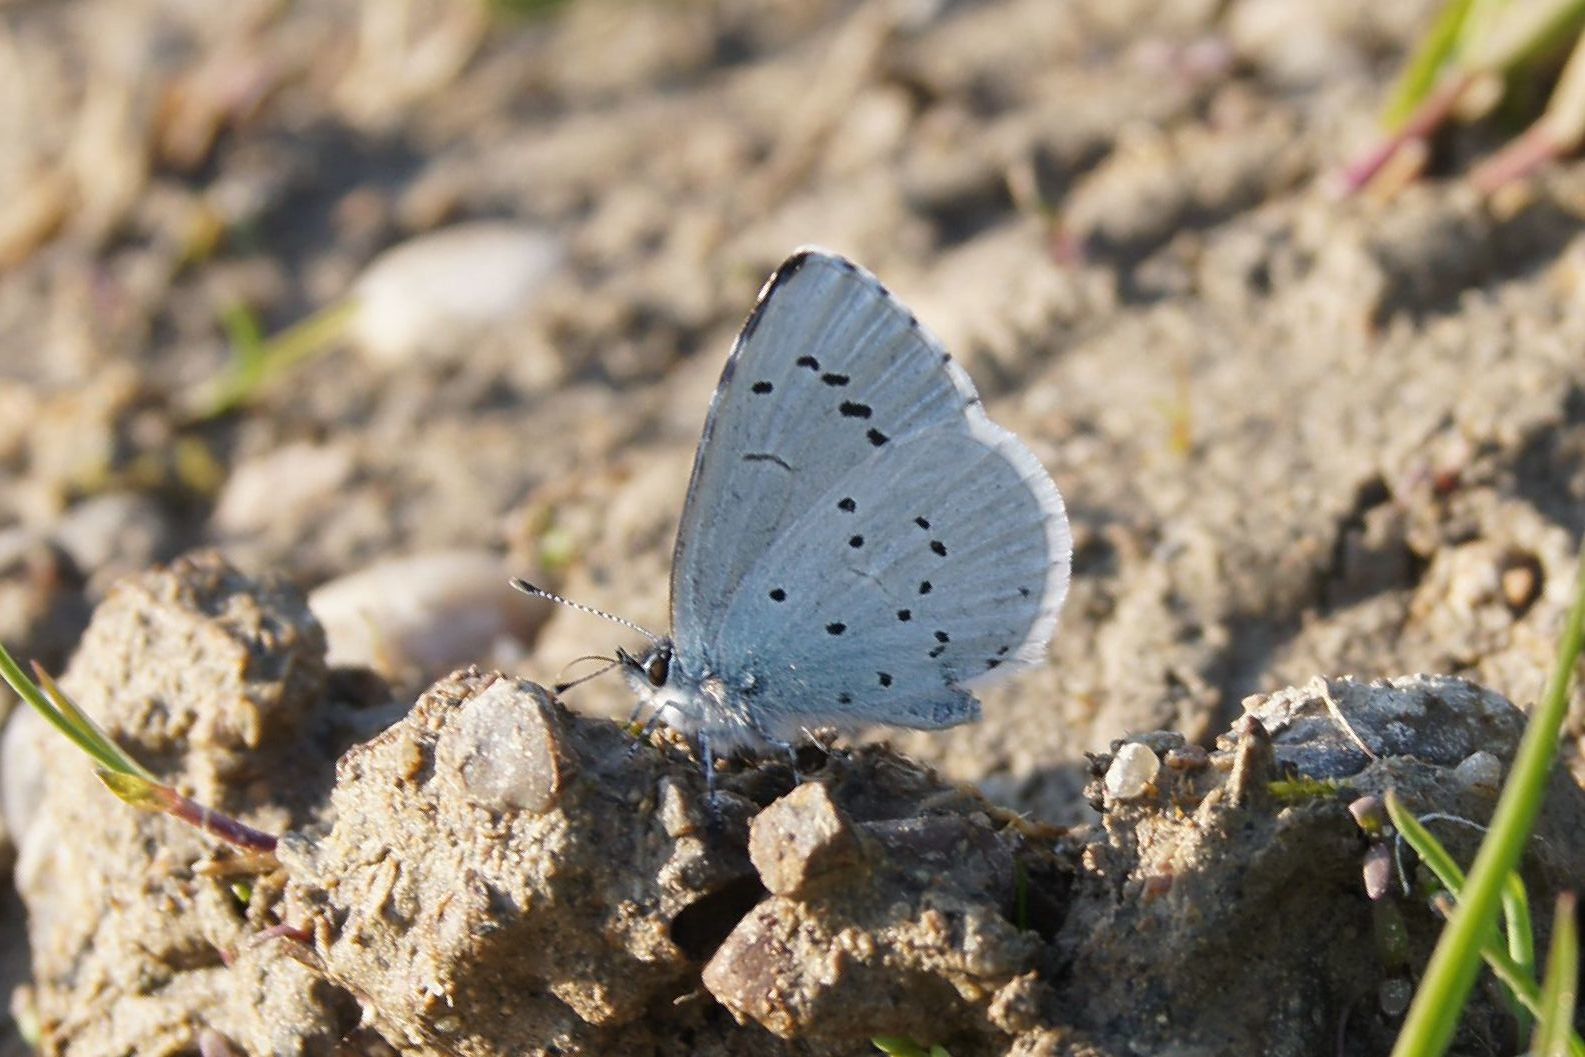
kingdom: Animalia
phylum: Arthropoda
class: Insecta
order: Lepidoptera
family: Lycaenidae
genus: Celastrina
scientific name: Celastrina argiolus
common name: Holly blue
